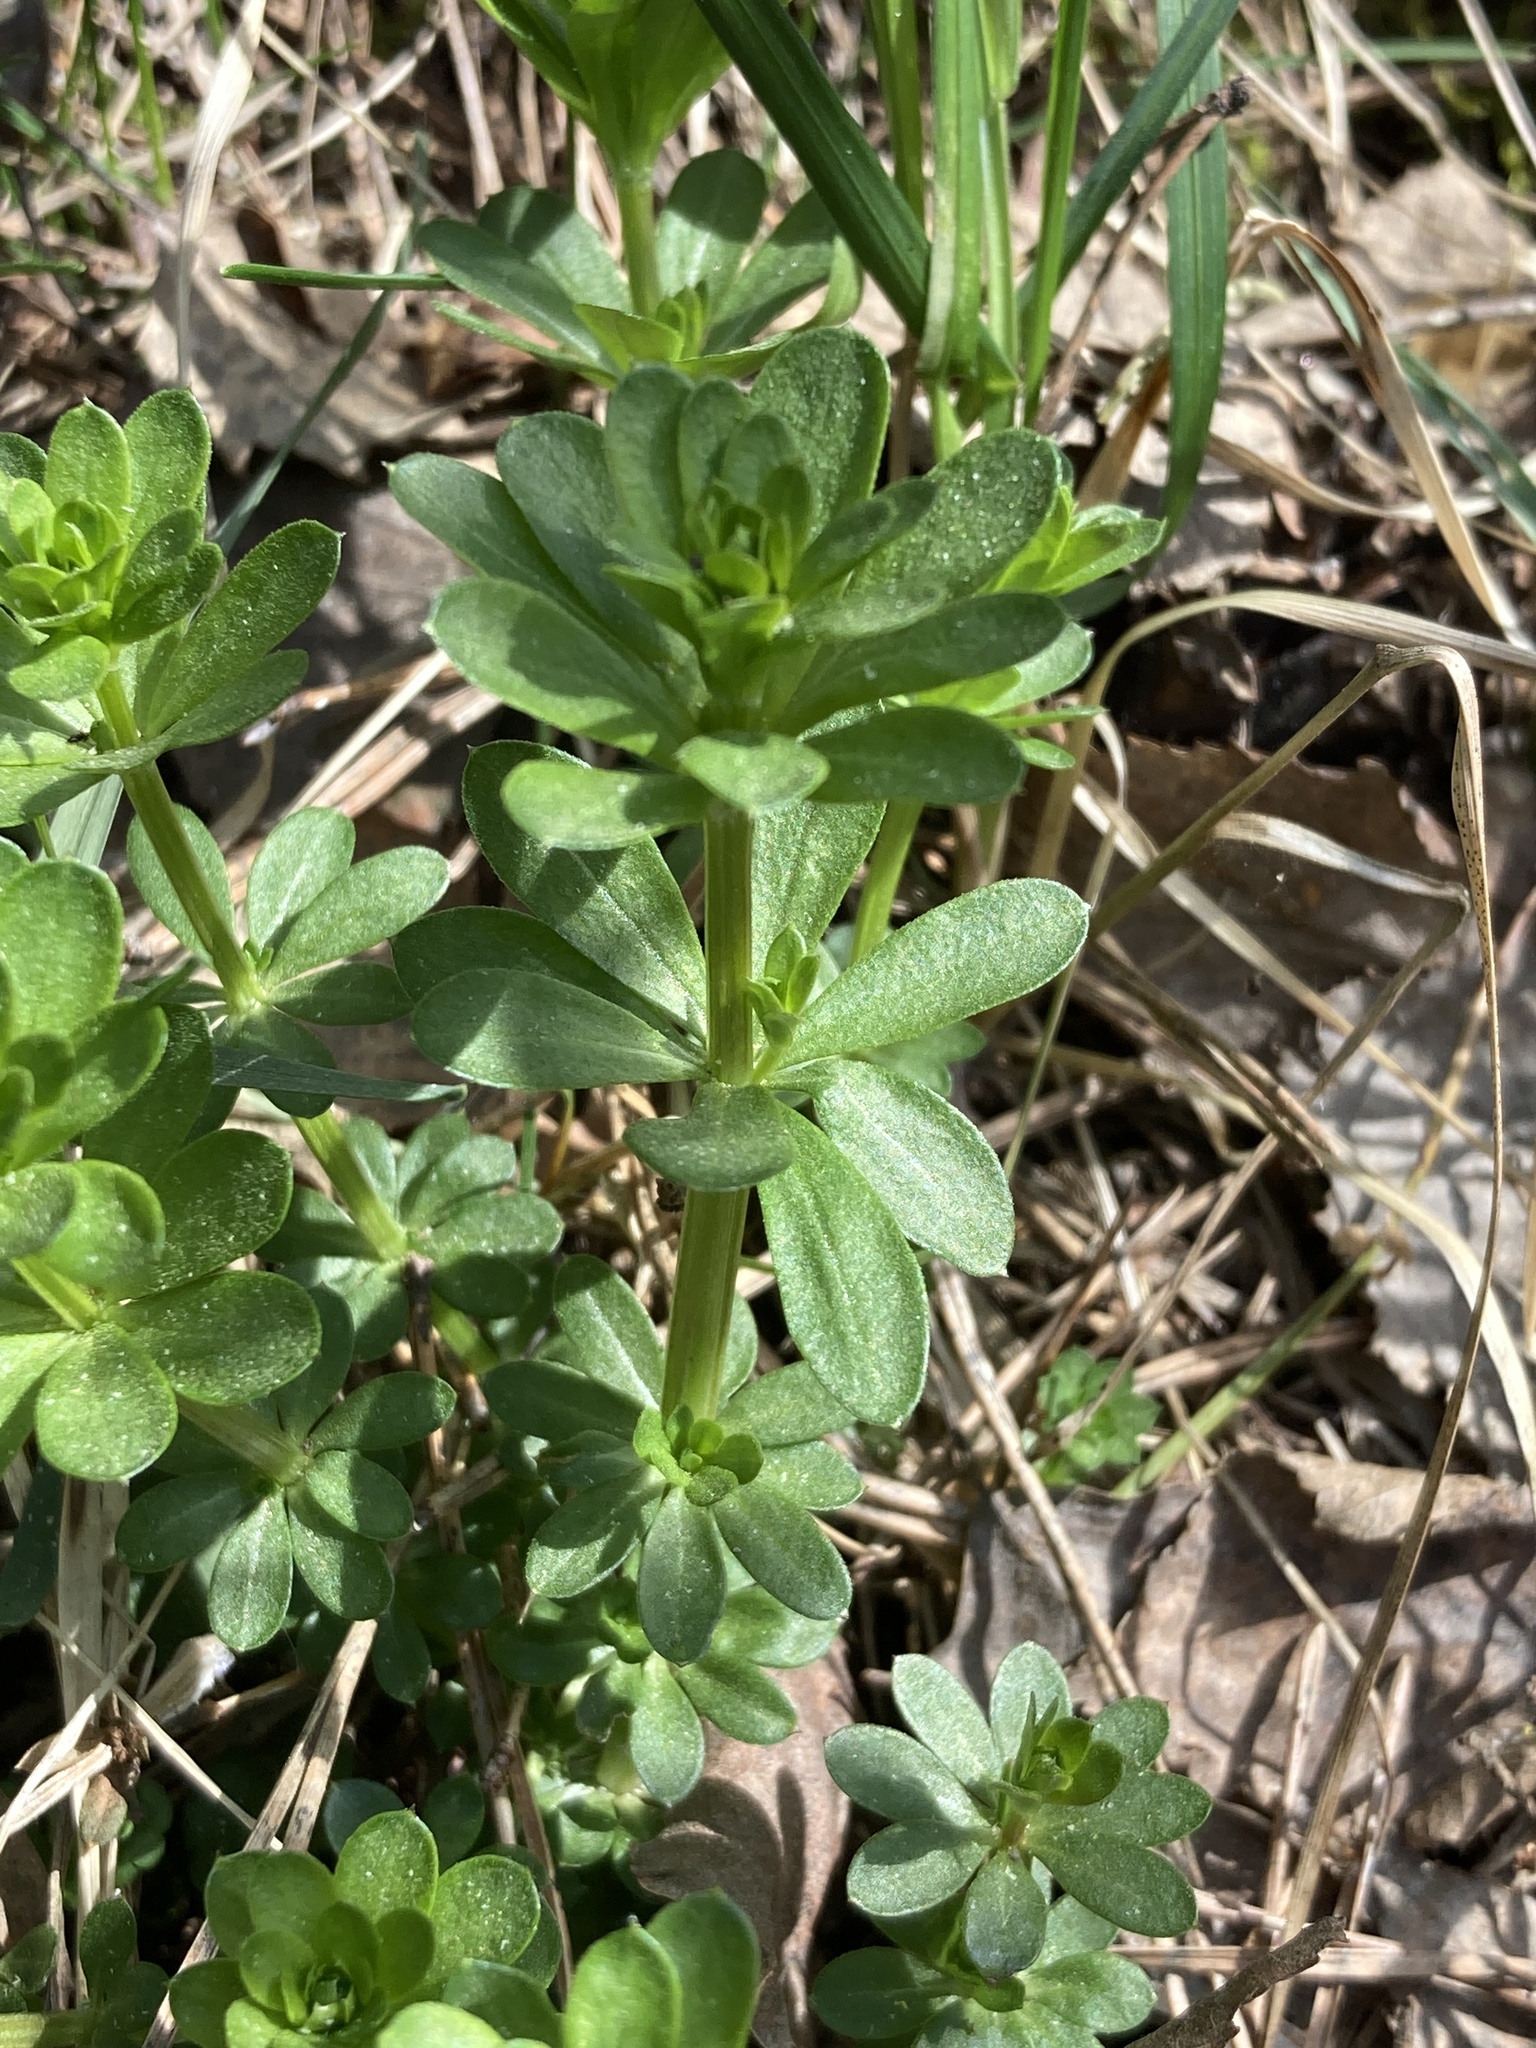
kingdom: Plantae
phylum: Tracheophyta
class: Magnoliopsida
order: Gentianales
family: Rubiaceae
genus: Galium
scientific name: Galium mollugo
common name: Hedge bedstraw
